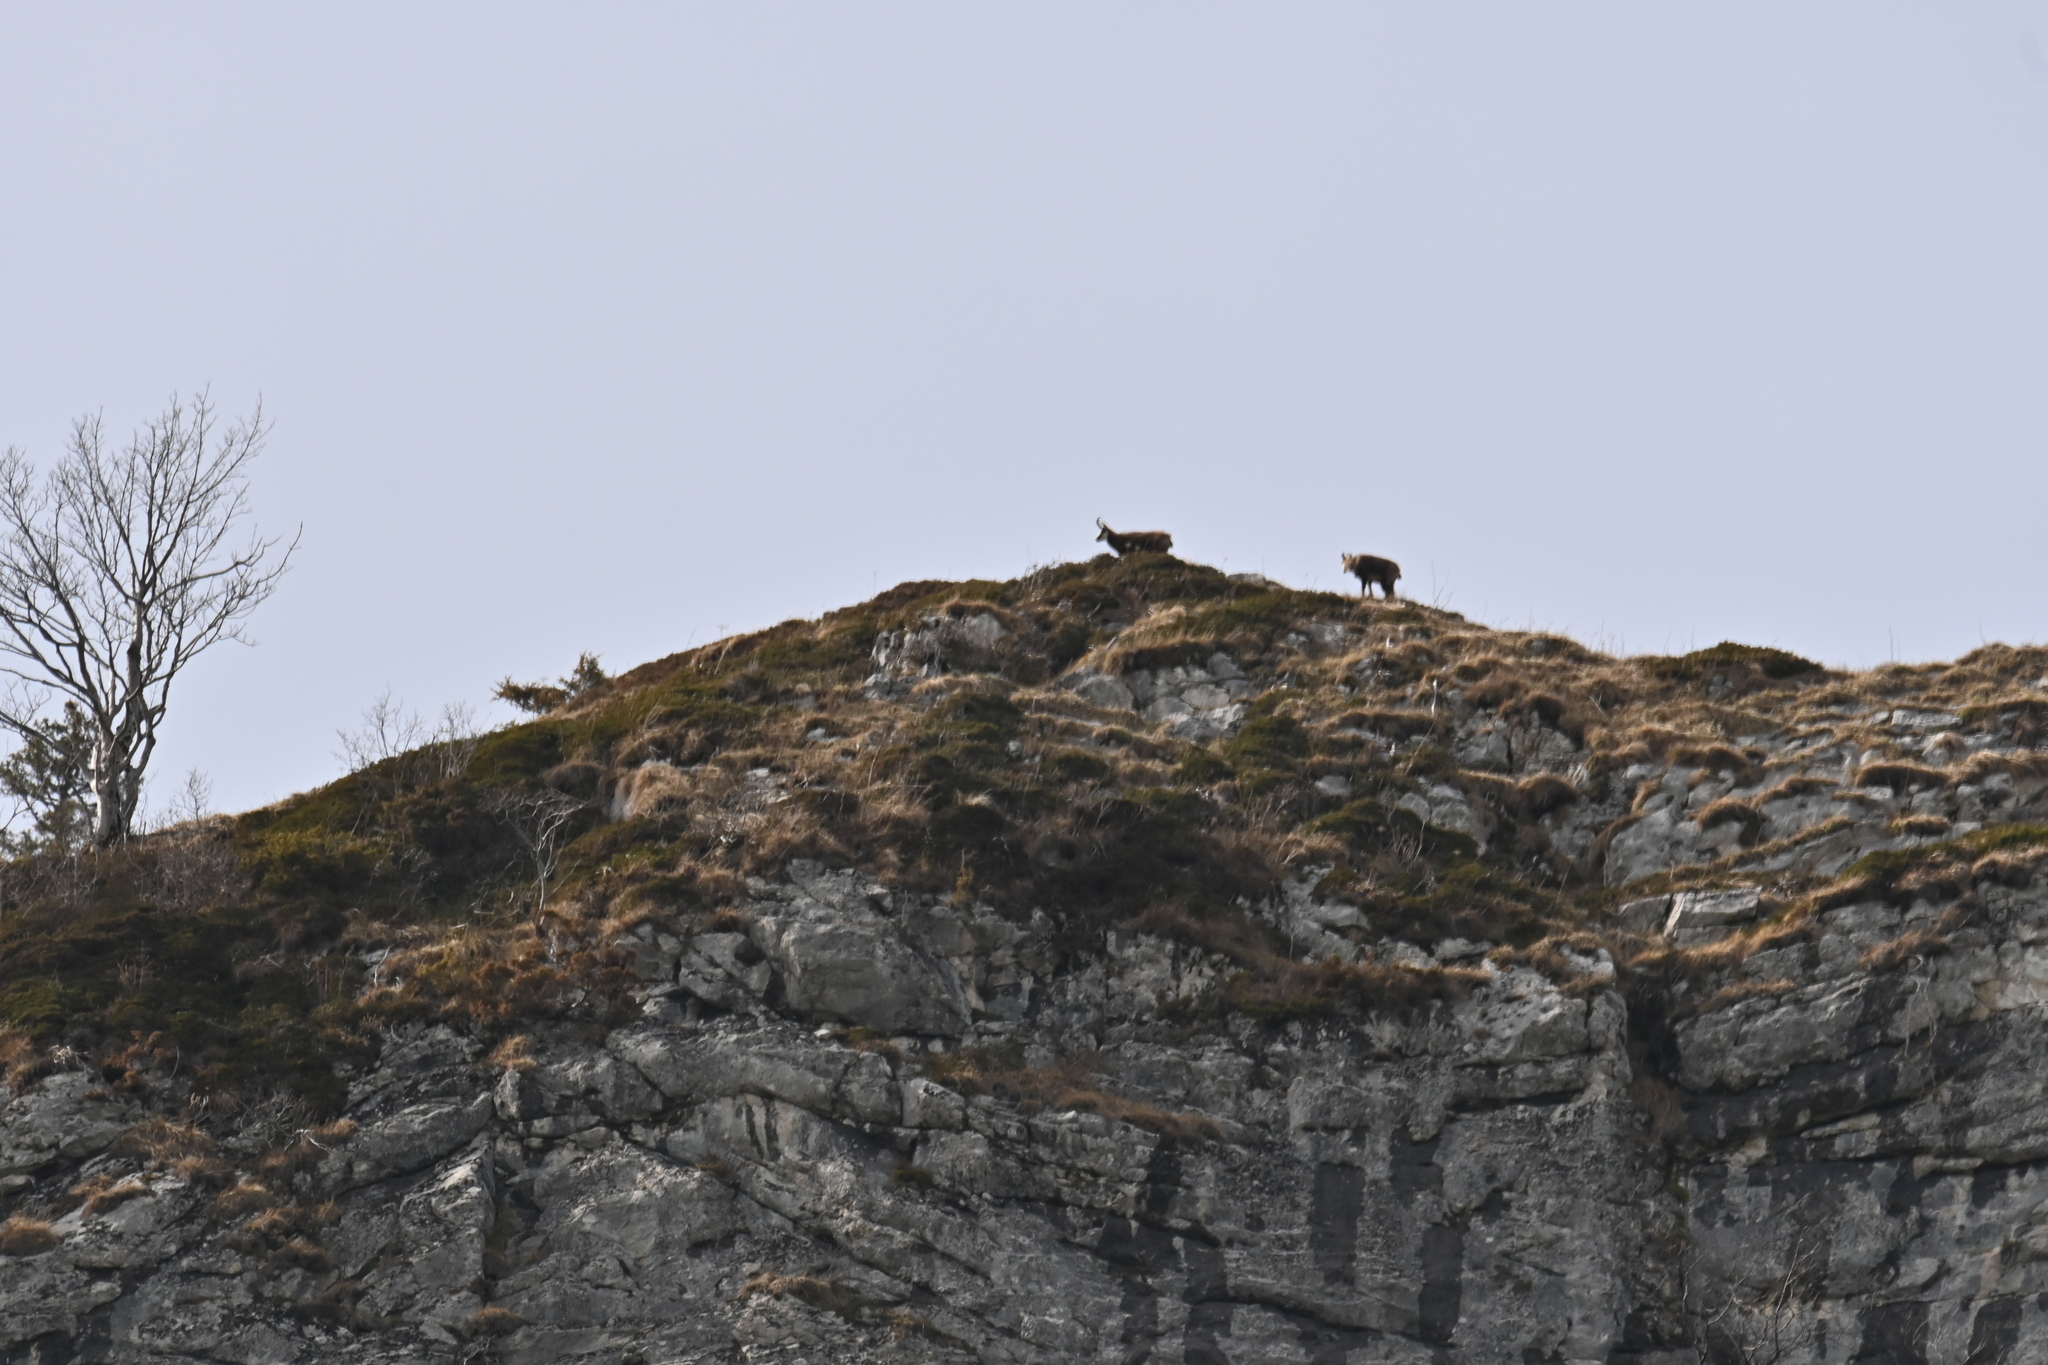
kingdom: Animalia
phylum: Chordata
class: Mammalia
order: Artiodactyla
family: Bovidae
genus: Rupicapra
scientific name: Rupicapra rupicapra
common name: Chamois
